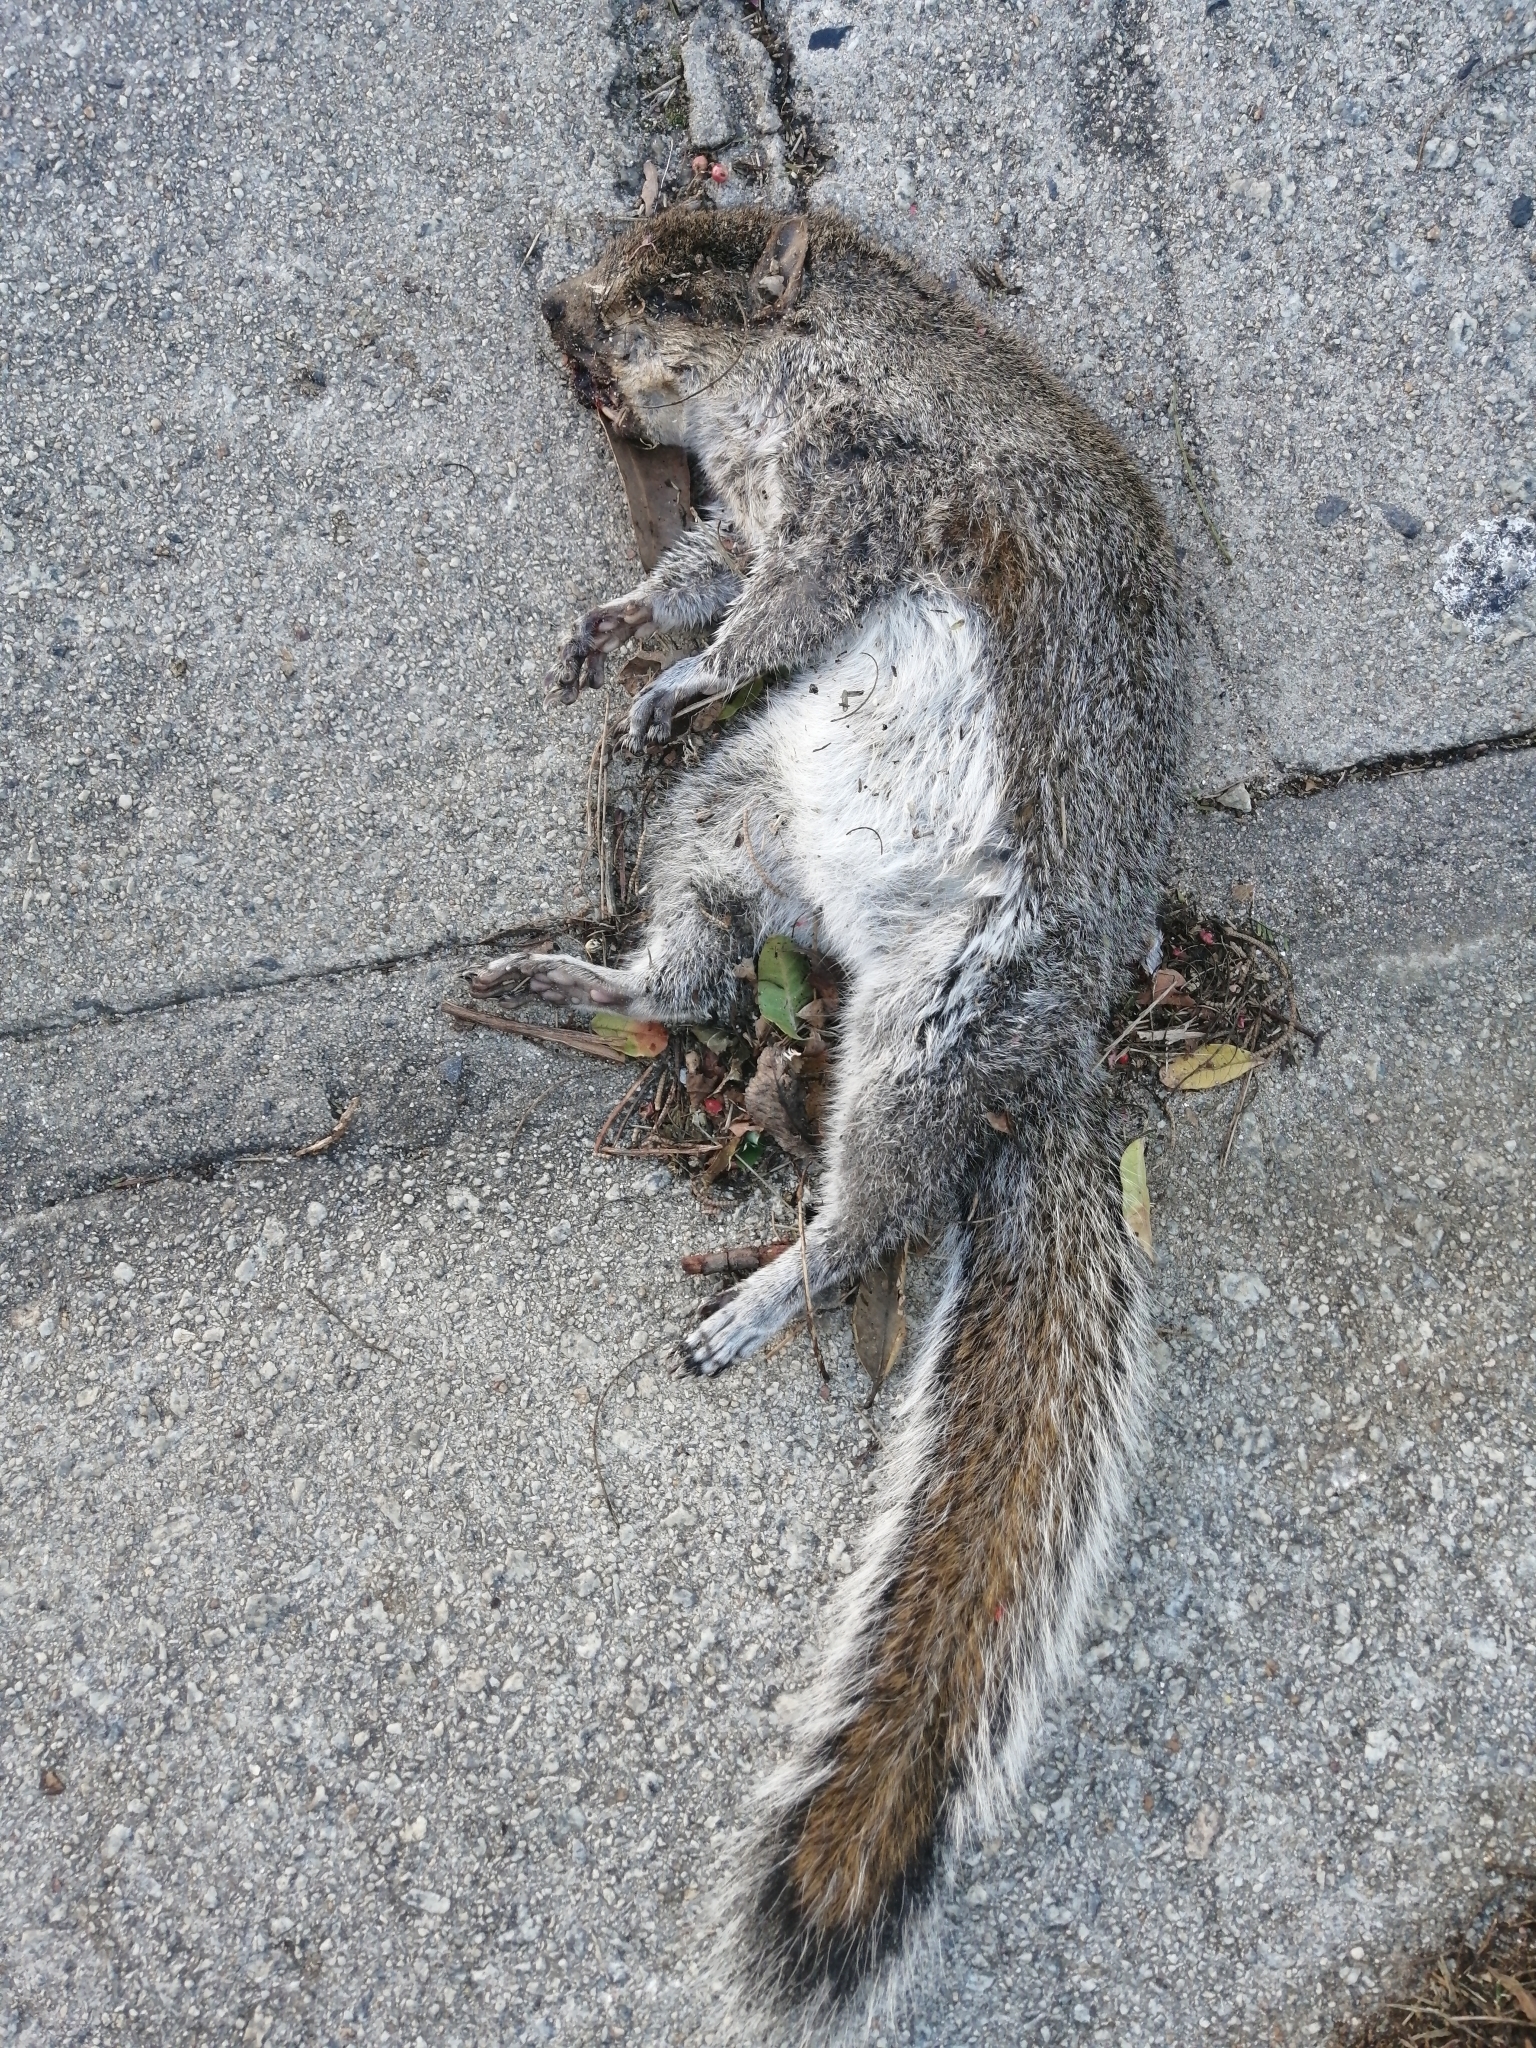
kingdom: Animalia
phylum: Chordata
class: Mammalia
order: Rodentia
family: Sciuridae
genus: Sciurus
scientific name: Sciurus carolinensis
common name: Eastern gray squirrel
